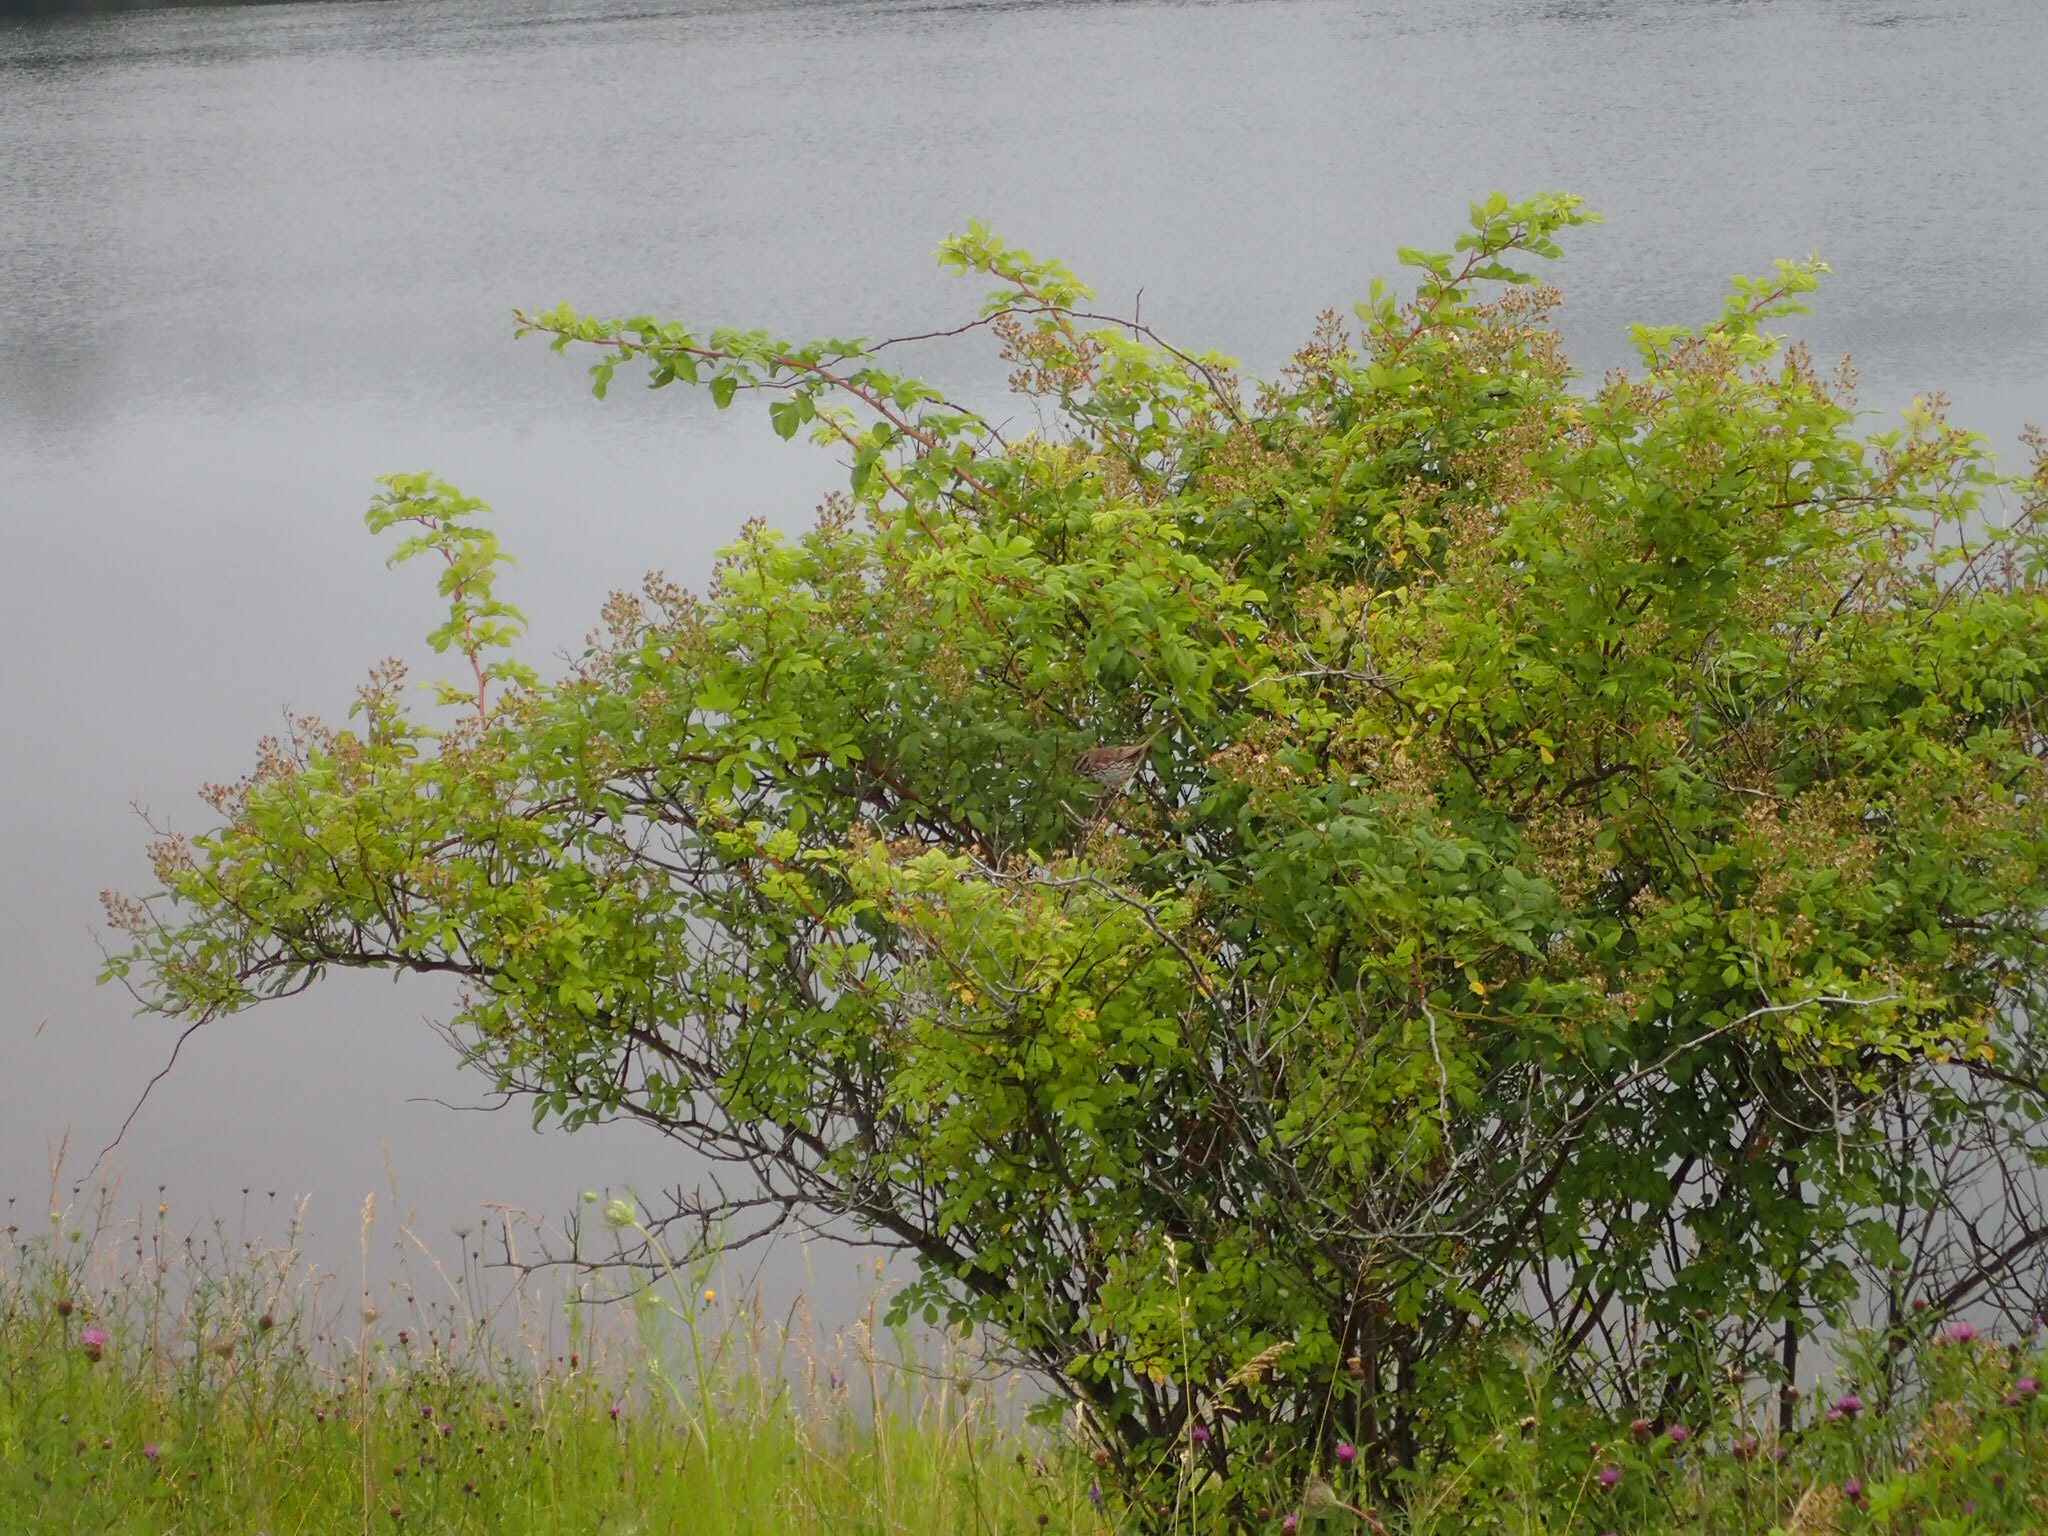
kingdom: Animalia
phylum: Chordata
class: Aves
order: Passeriformes
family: Passerellidae
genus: Melospiza
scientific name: Melospiza melodia
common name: Song sparrow
